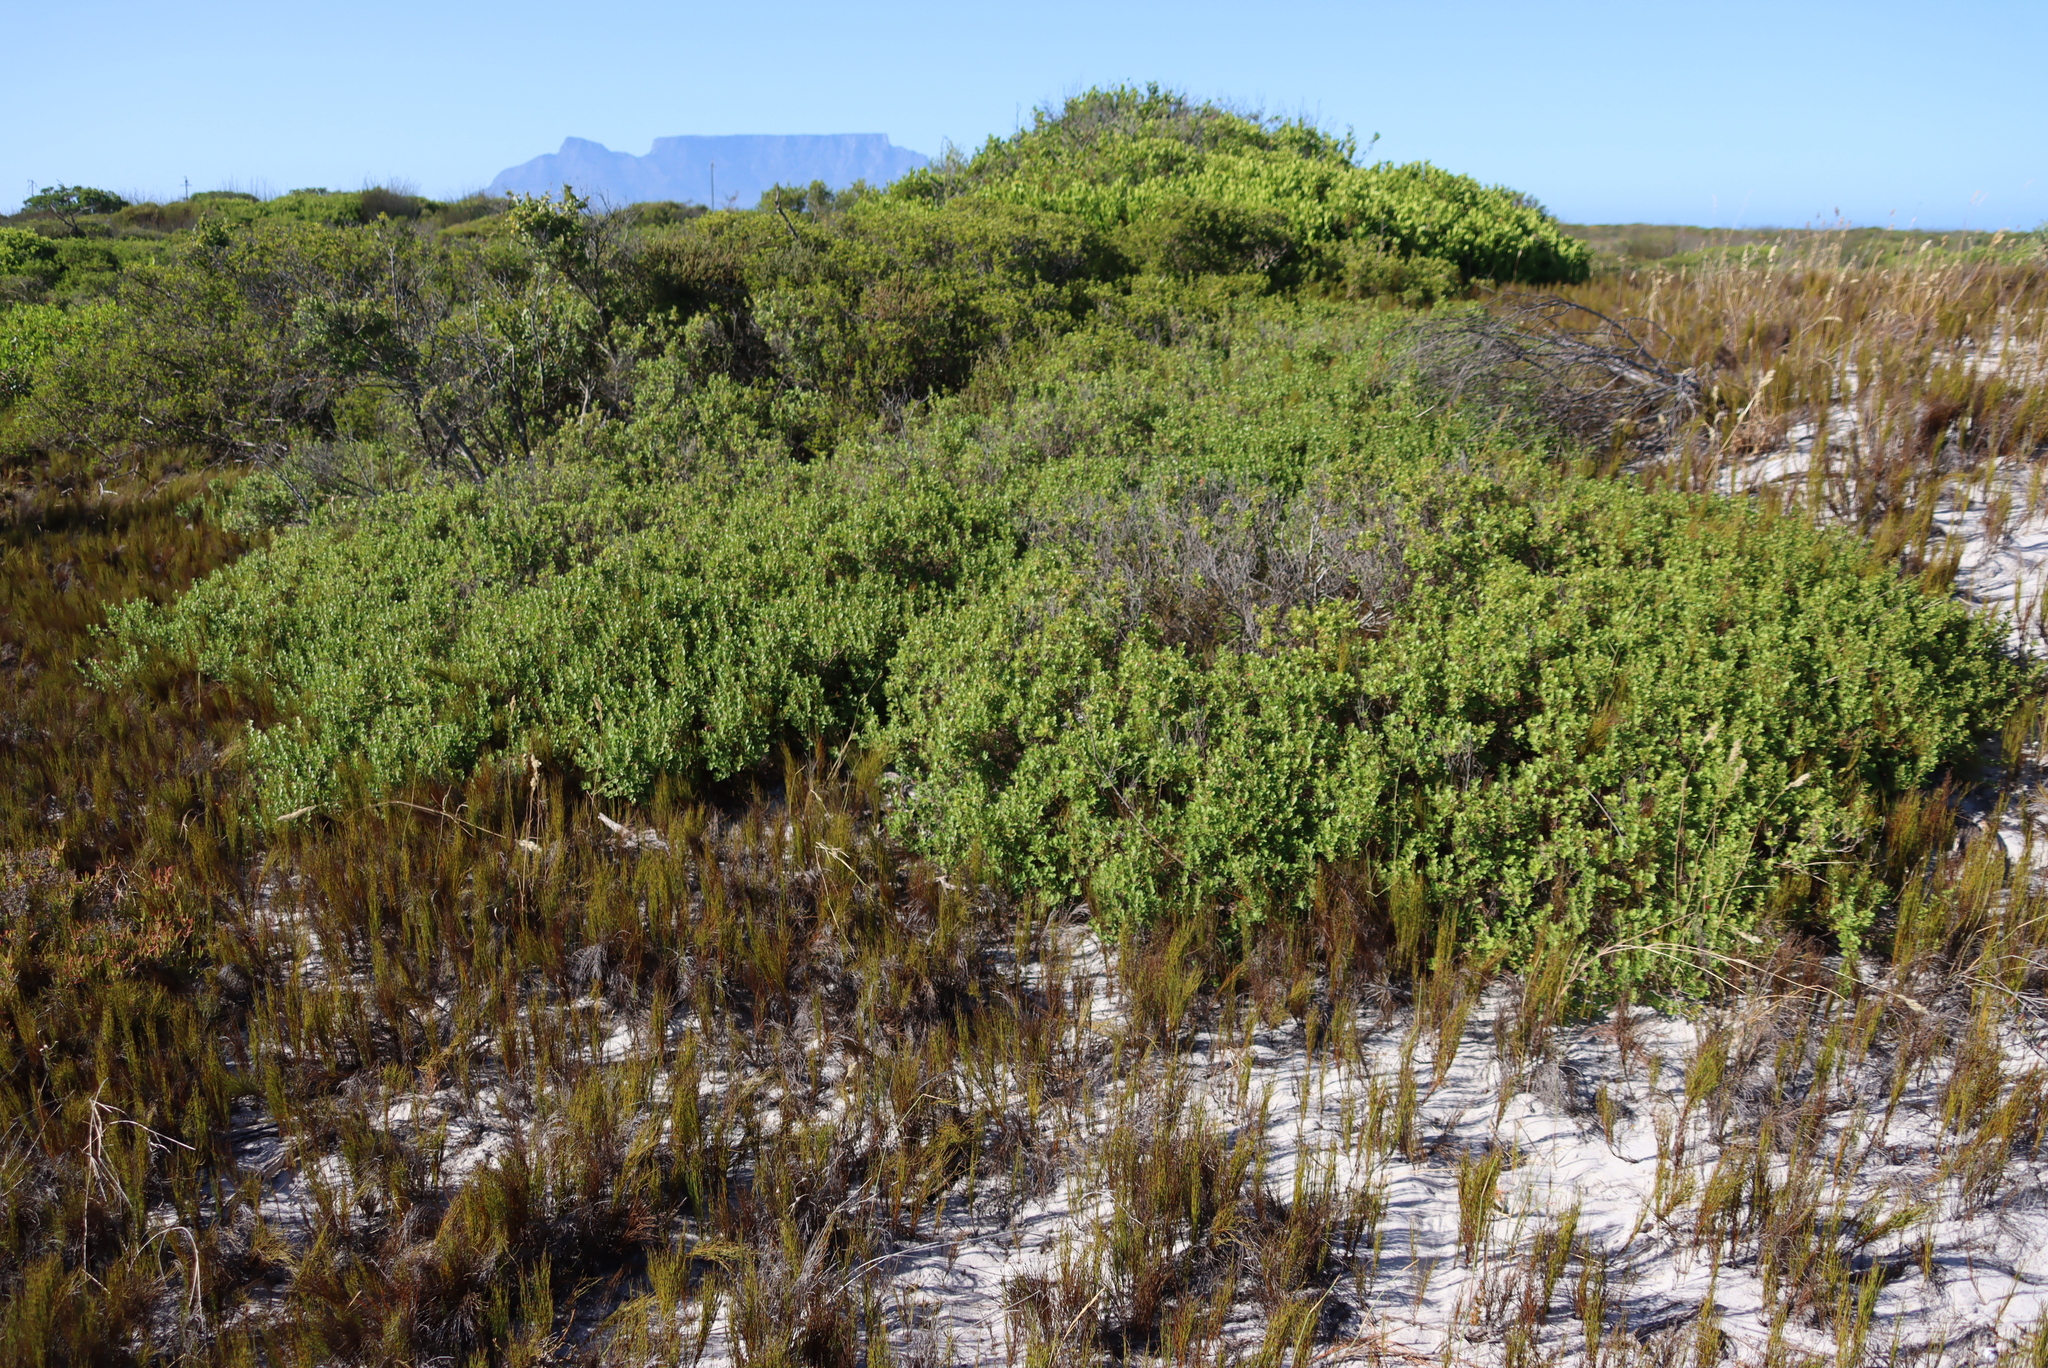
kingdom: Plantae
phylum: Tracheophyta
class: Magnoliopsida
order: Sapindales
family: Anacardiaceae
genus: Searsia
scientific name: Searsia crenata
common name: Crowberry
